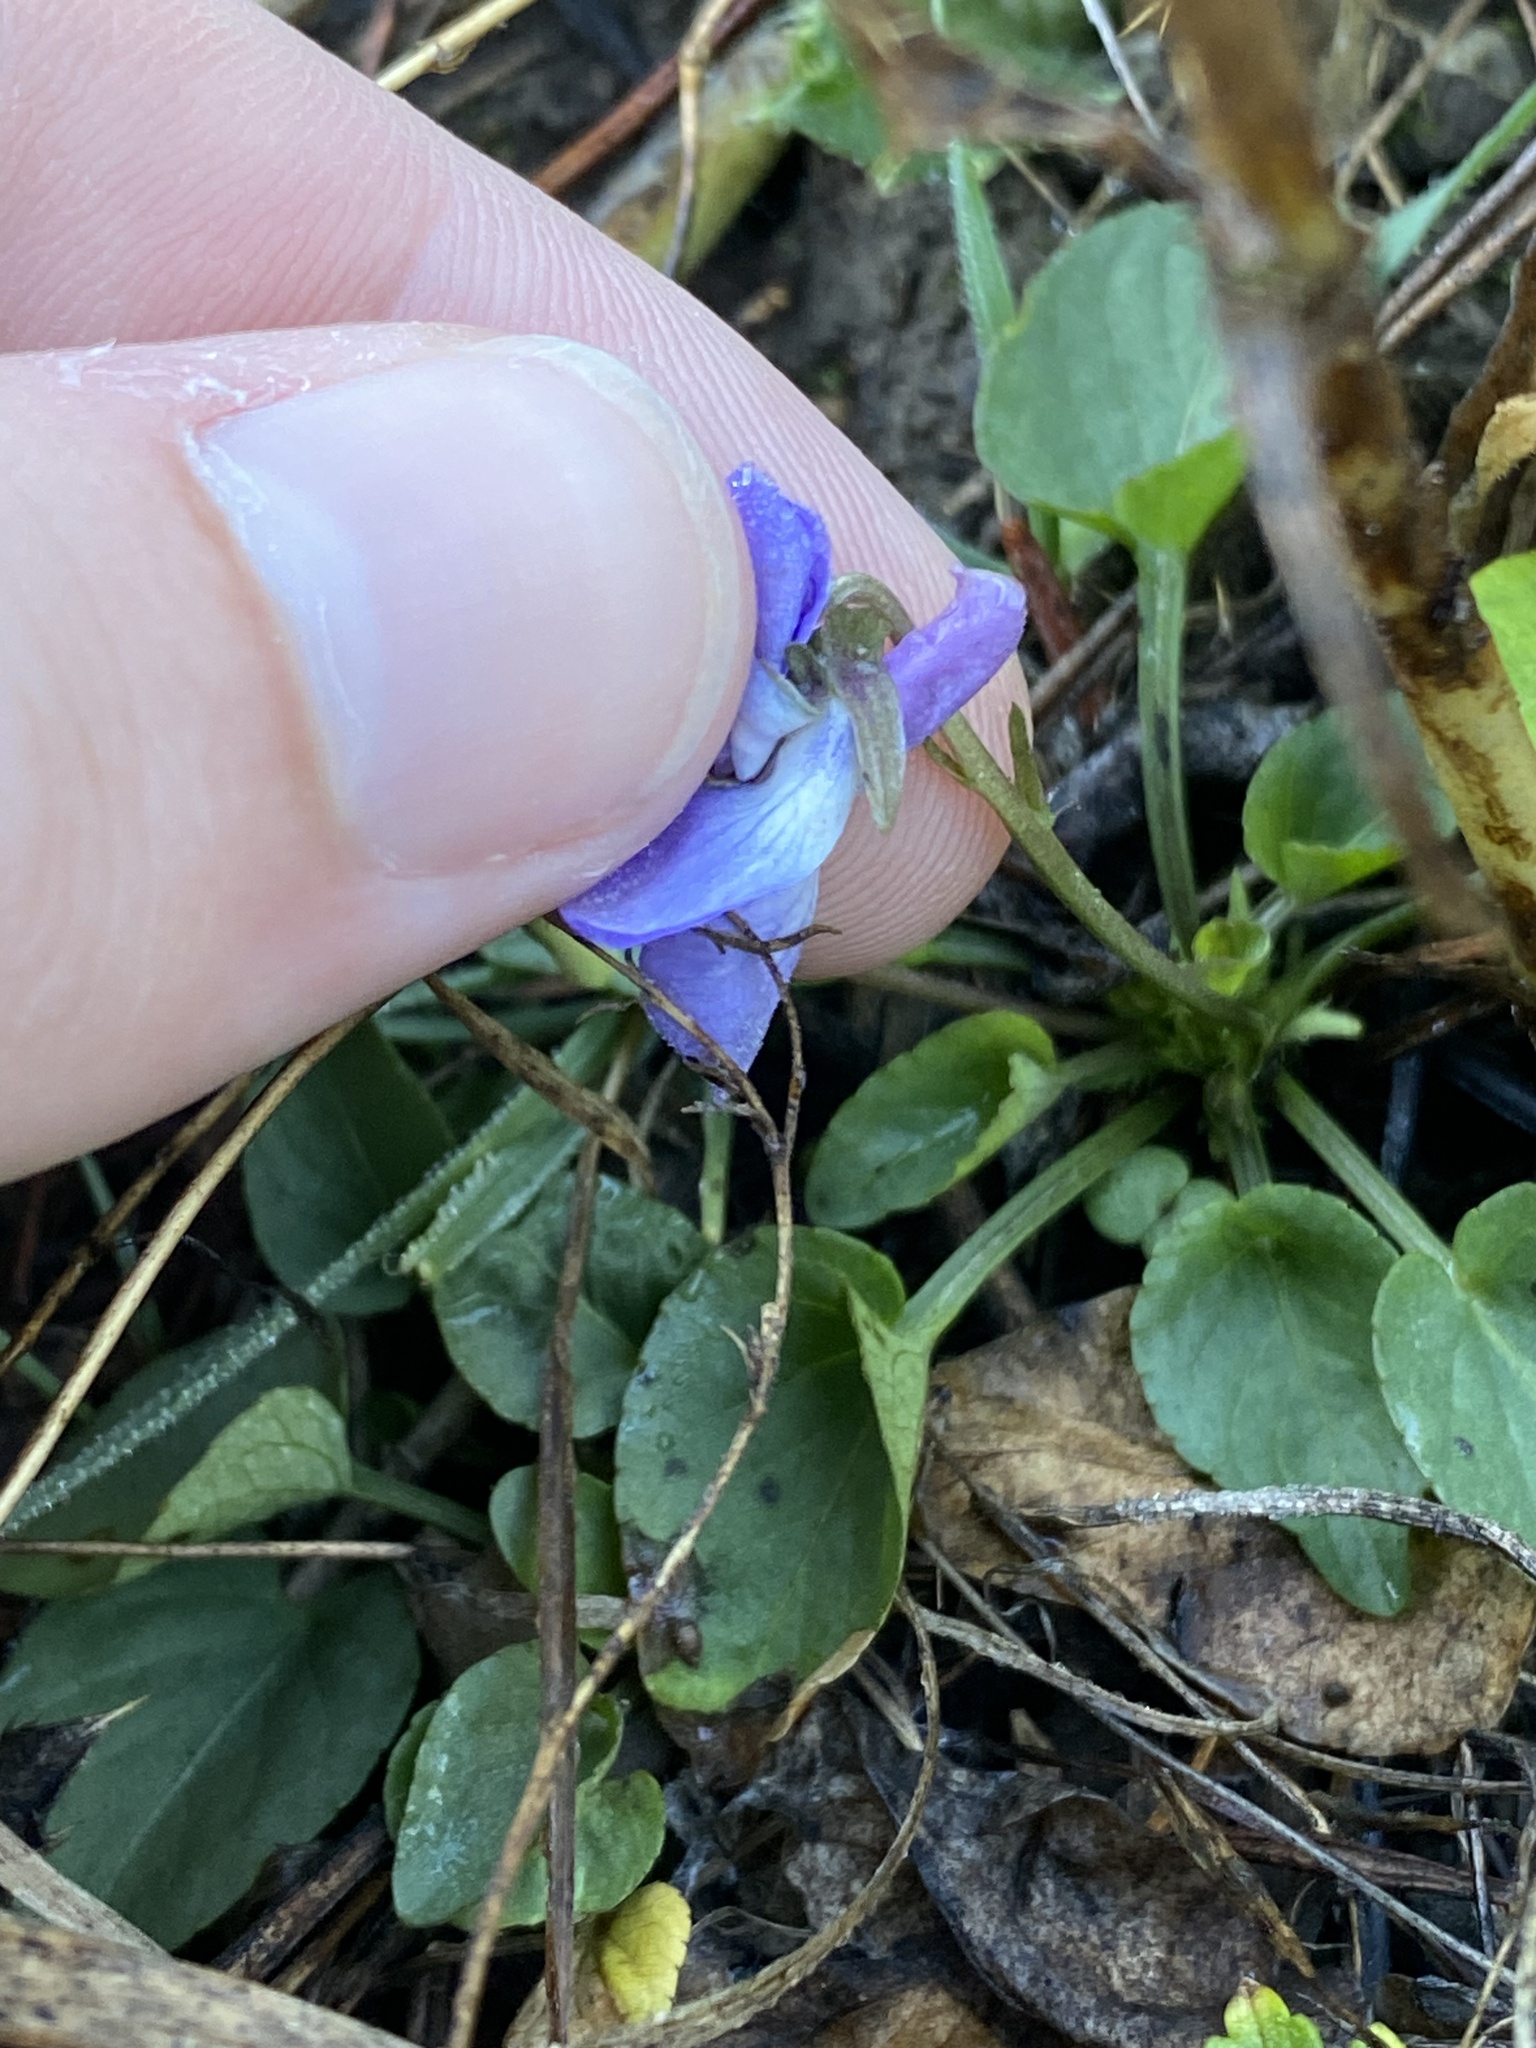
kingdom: Plantae
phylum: Tracheophyta
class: Magnoliopsida
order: Malpighiales
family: Violaceae
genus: Viola
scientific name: Viola adunca
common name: Sand violet
